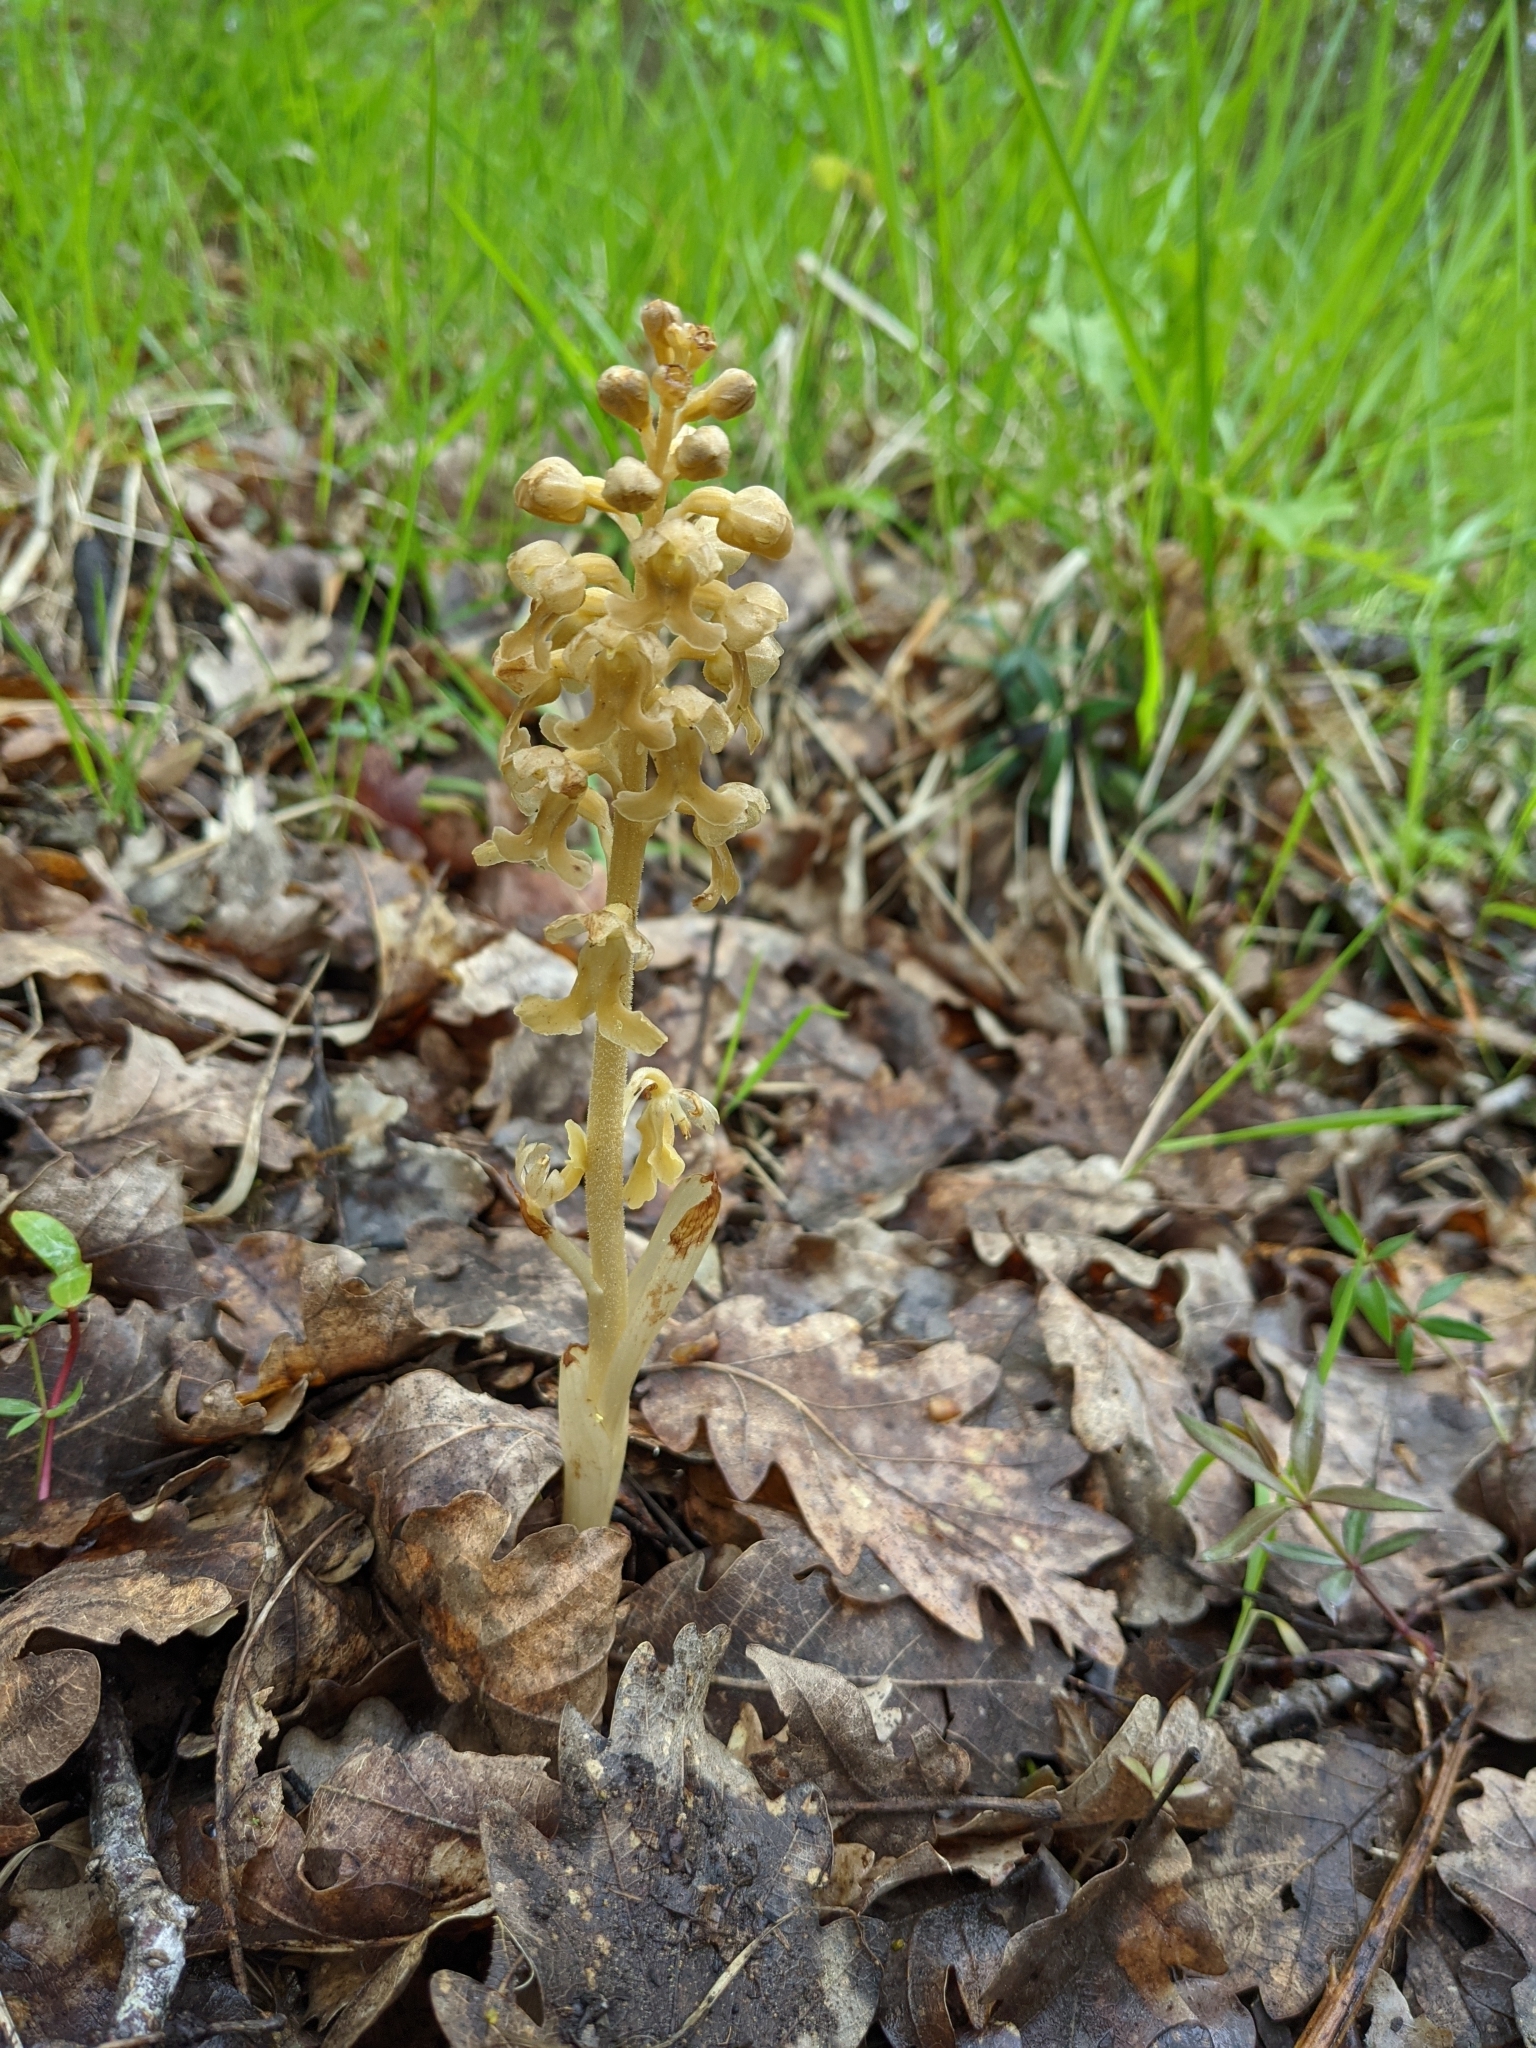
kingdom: Plantae
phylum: Tracheophyta
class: Liliopsida
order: Asparagales
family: Orchidaceae
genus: Neottia
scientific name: Neottia nidus-avis
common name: Bird's-nest orchid
